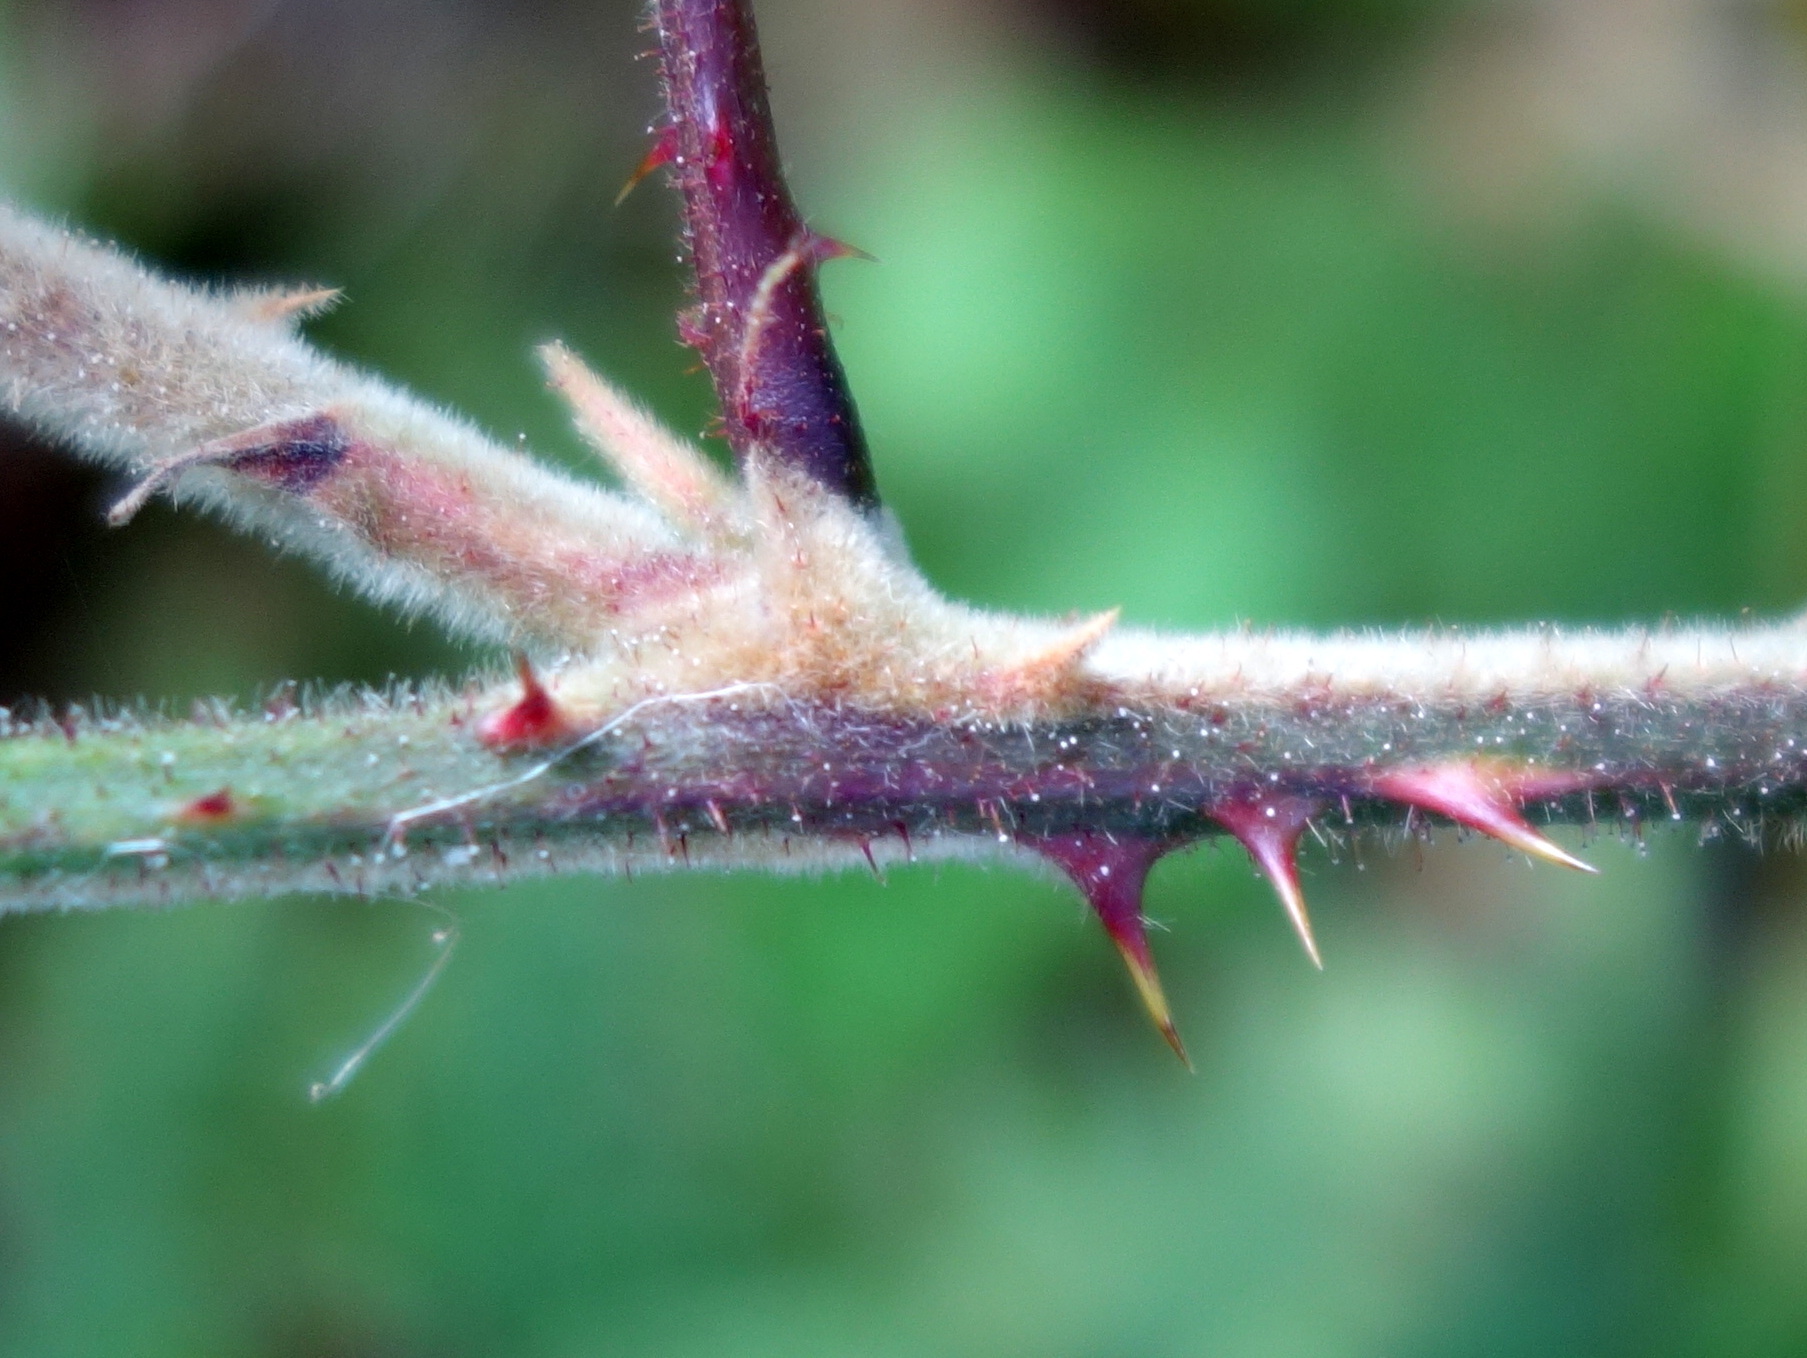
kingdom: Plantae
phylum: Tracheophyta
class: Magnoliopsida
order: Rosales
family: Rosaceae
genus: Rubus
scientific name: Rubus
